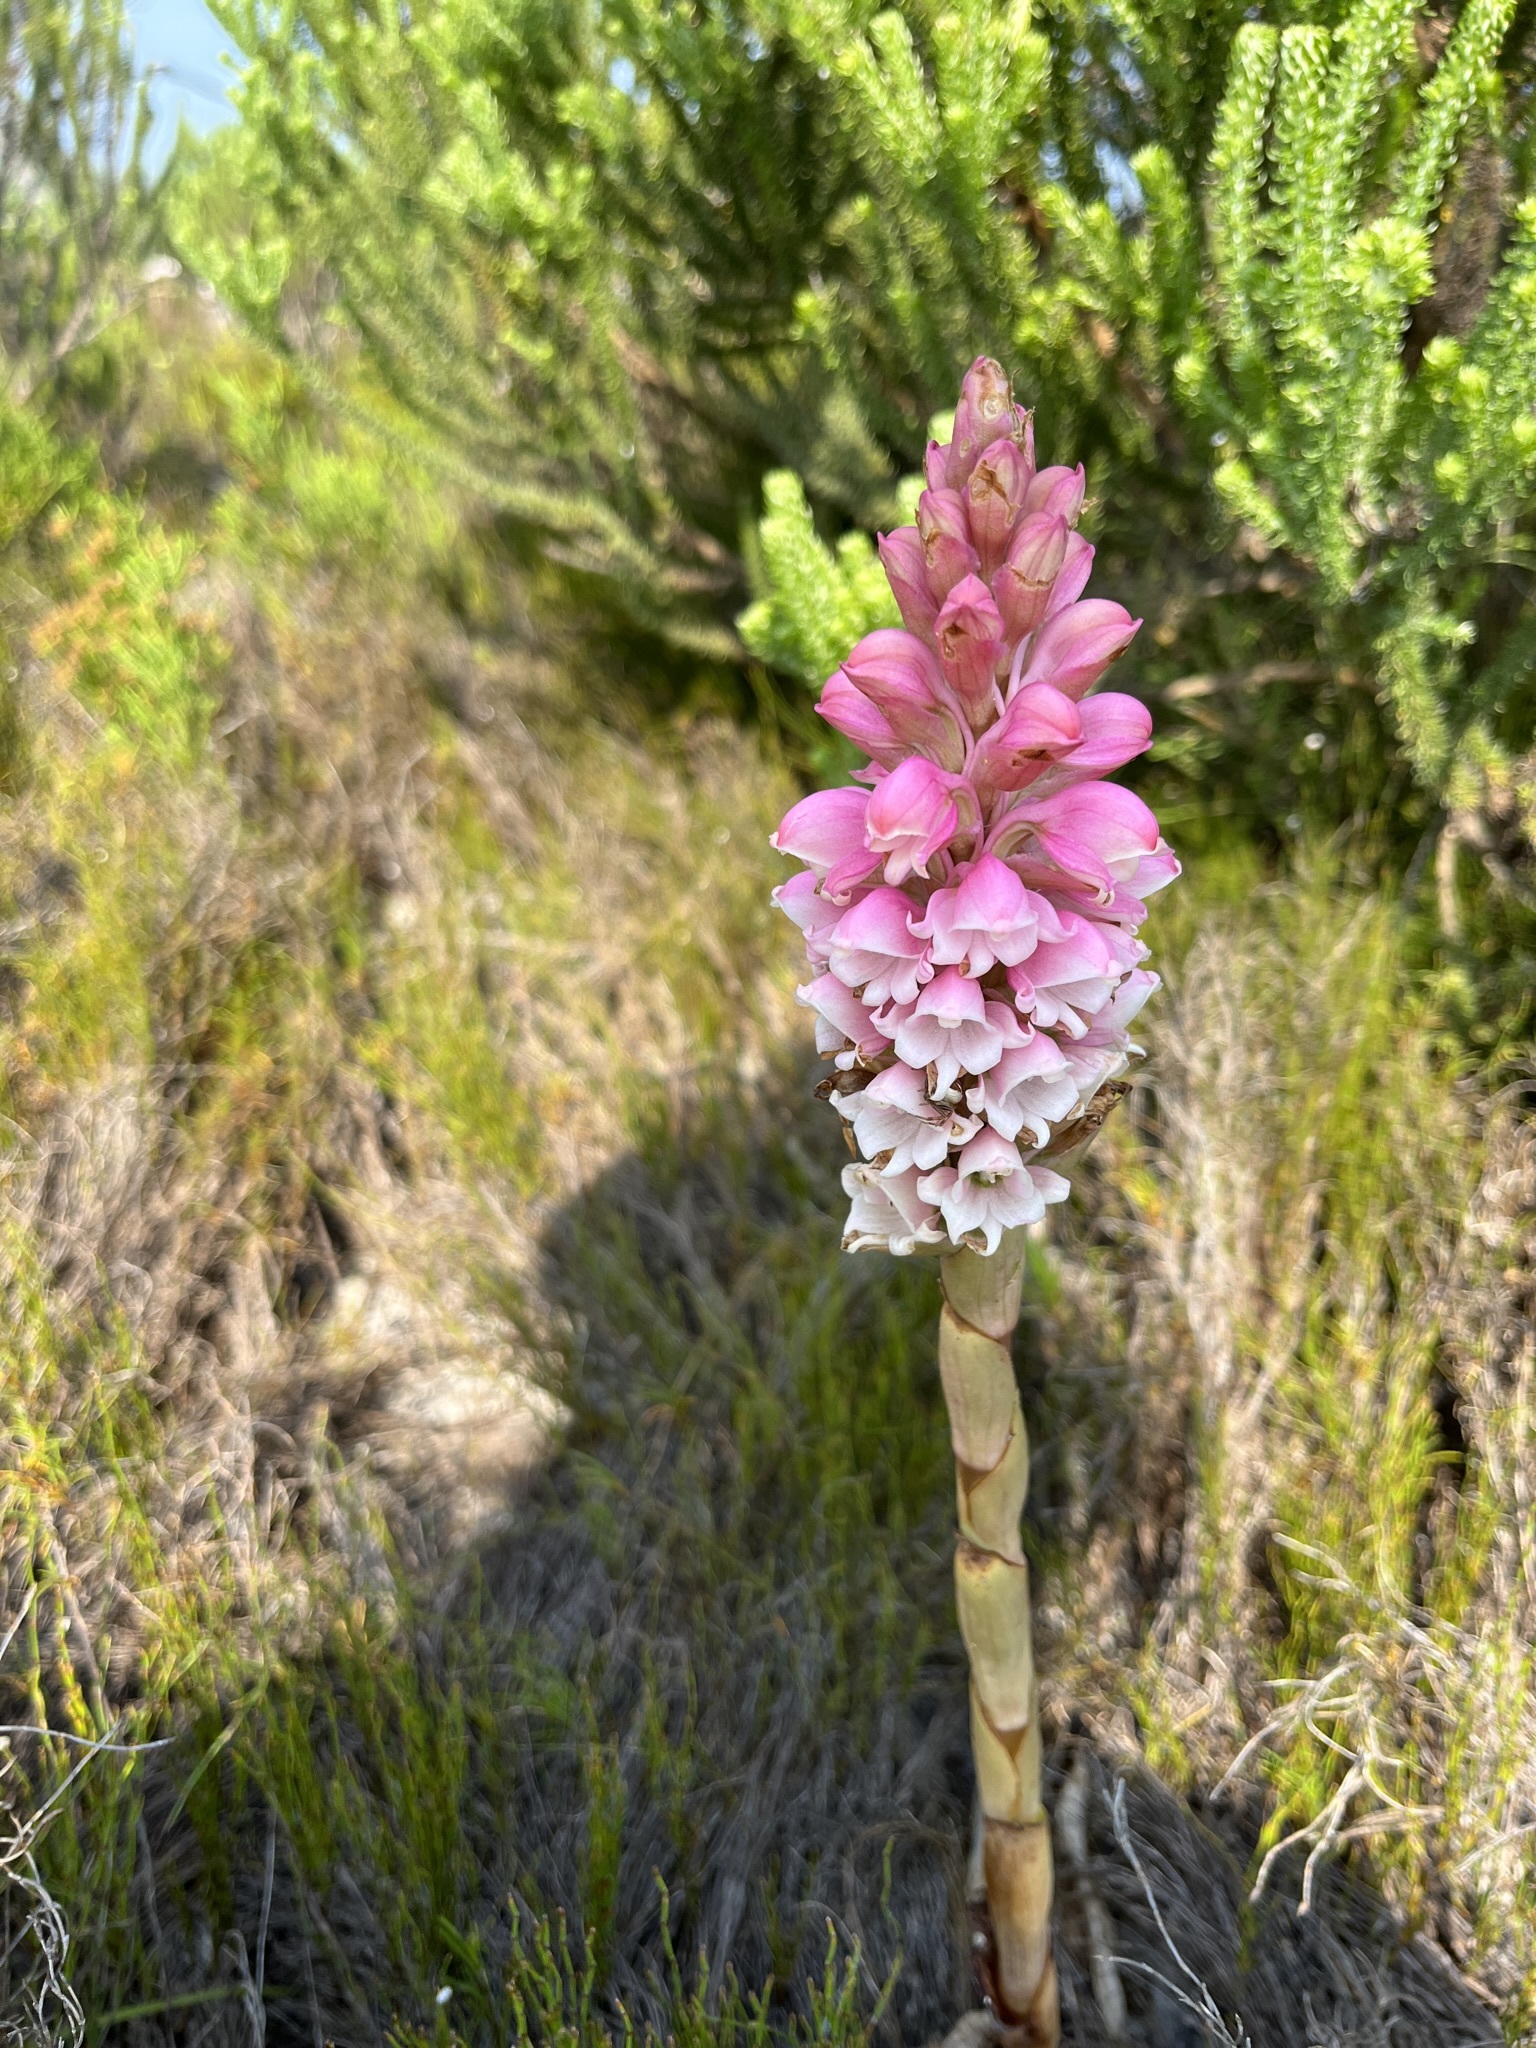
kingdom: Plantae
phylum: Tracheophyta
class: Liliopsida
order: Asparagales
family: Orchidaceae
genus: Satyrium
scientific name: Satyrium carneum
